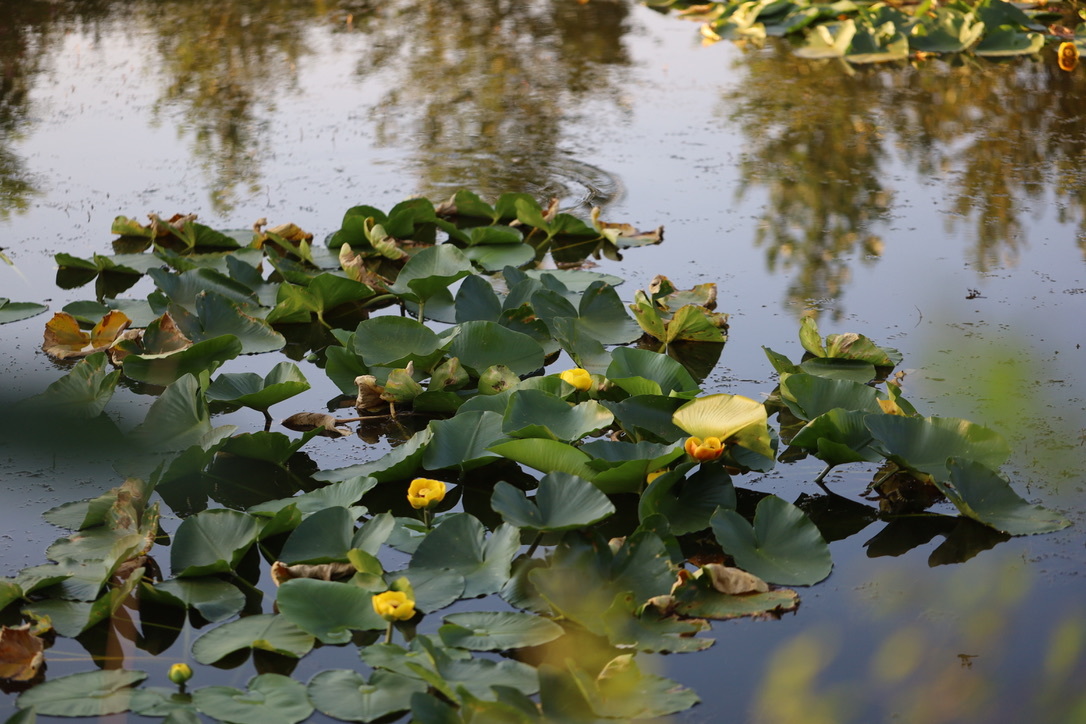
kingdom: Plantae
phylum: Tracheophyta
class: Magnoliopsida
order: Nymphaeales
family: Nymphaeaceae
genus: Nuphar
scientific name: Nuphar polysepala
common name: Rocky mountain cow-lily
